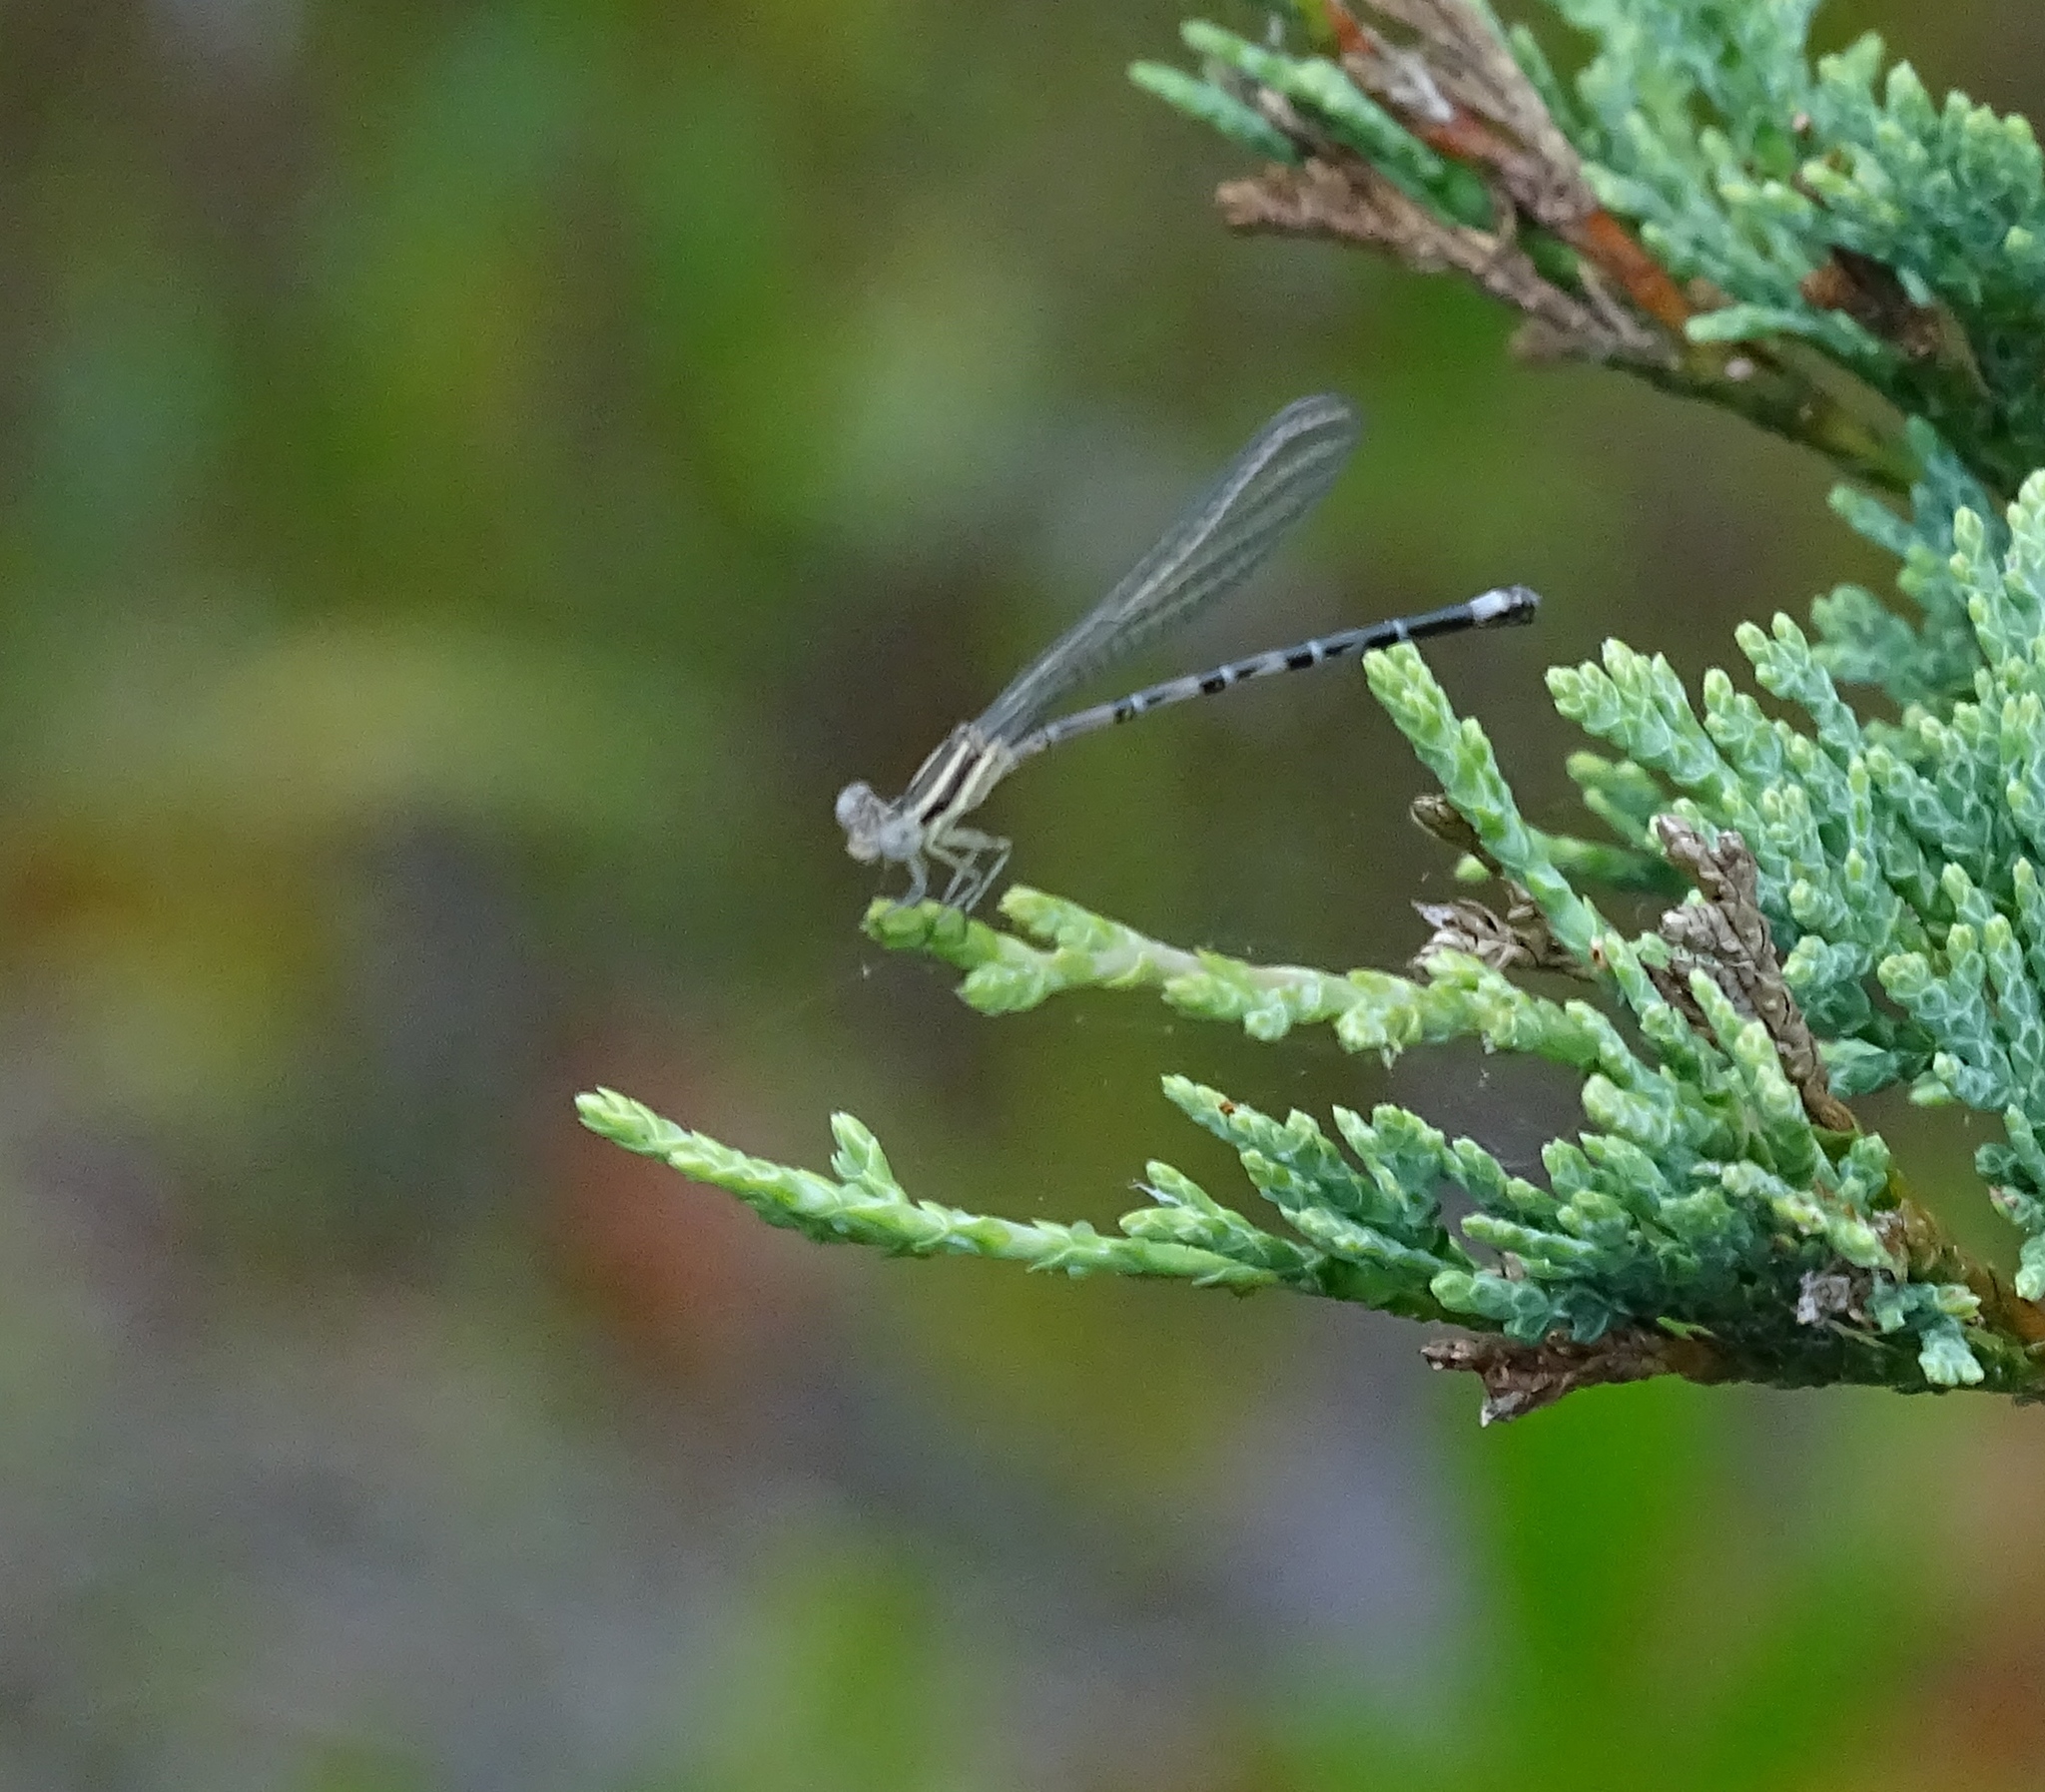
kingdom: Animalia
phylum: Arthropoda
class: Insecta
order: Odonata
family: Coenagrionidae
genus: Argia
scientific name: Argia bipunctulata
